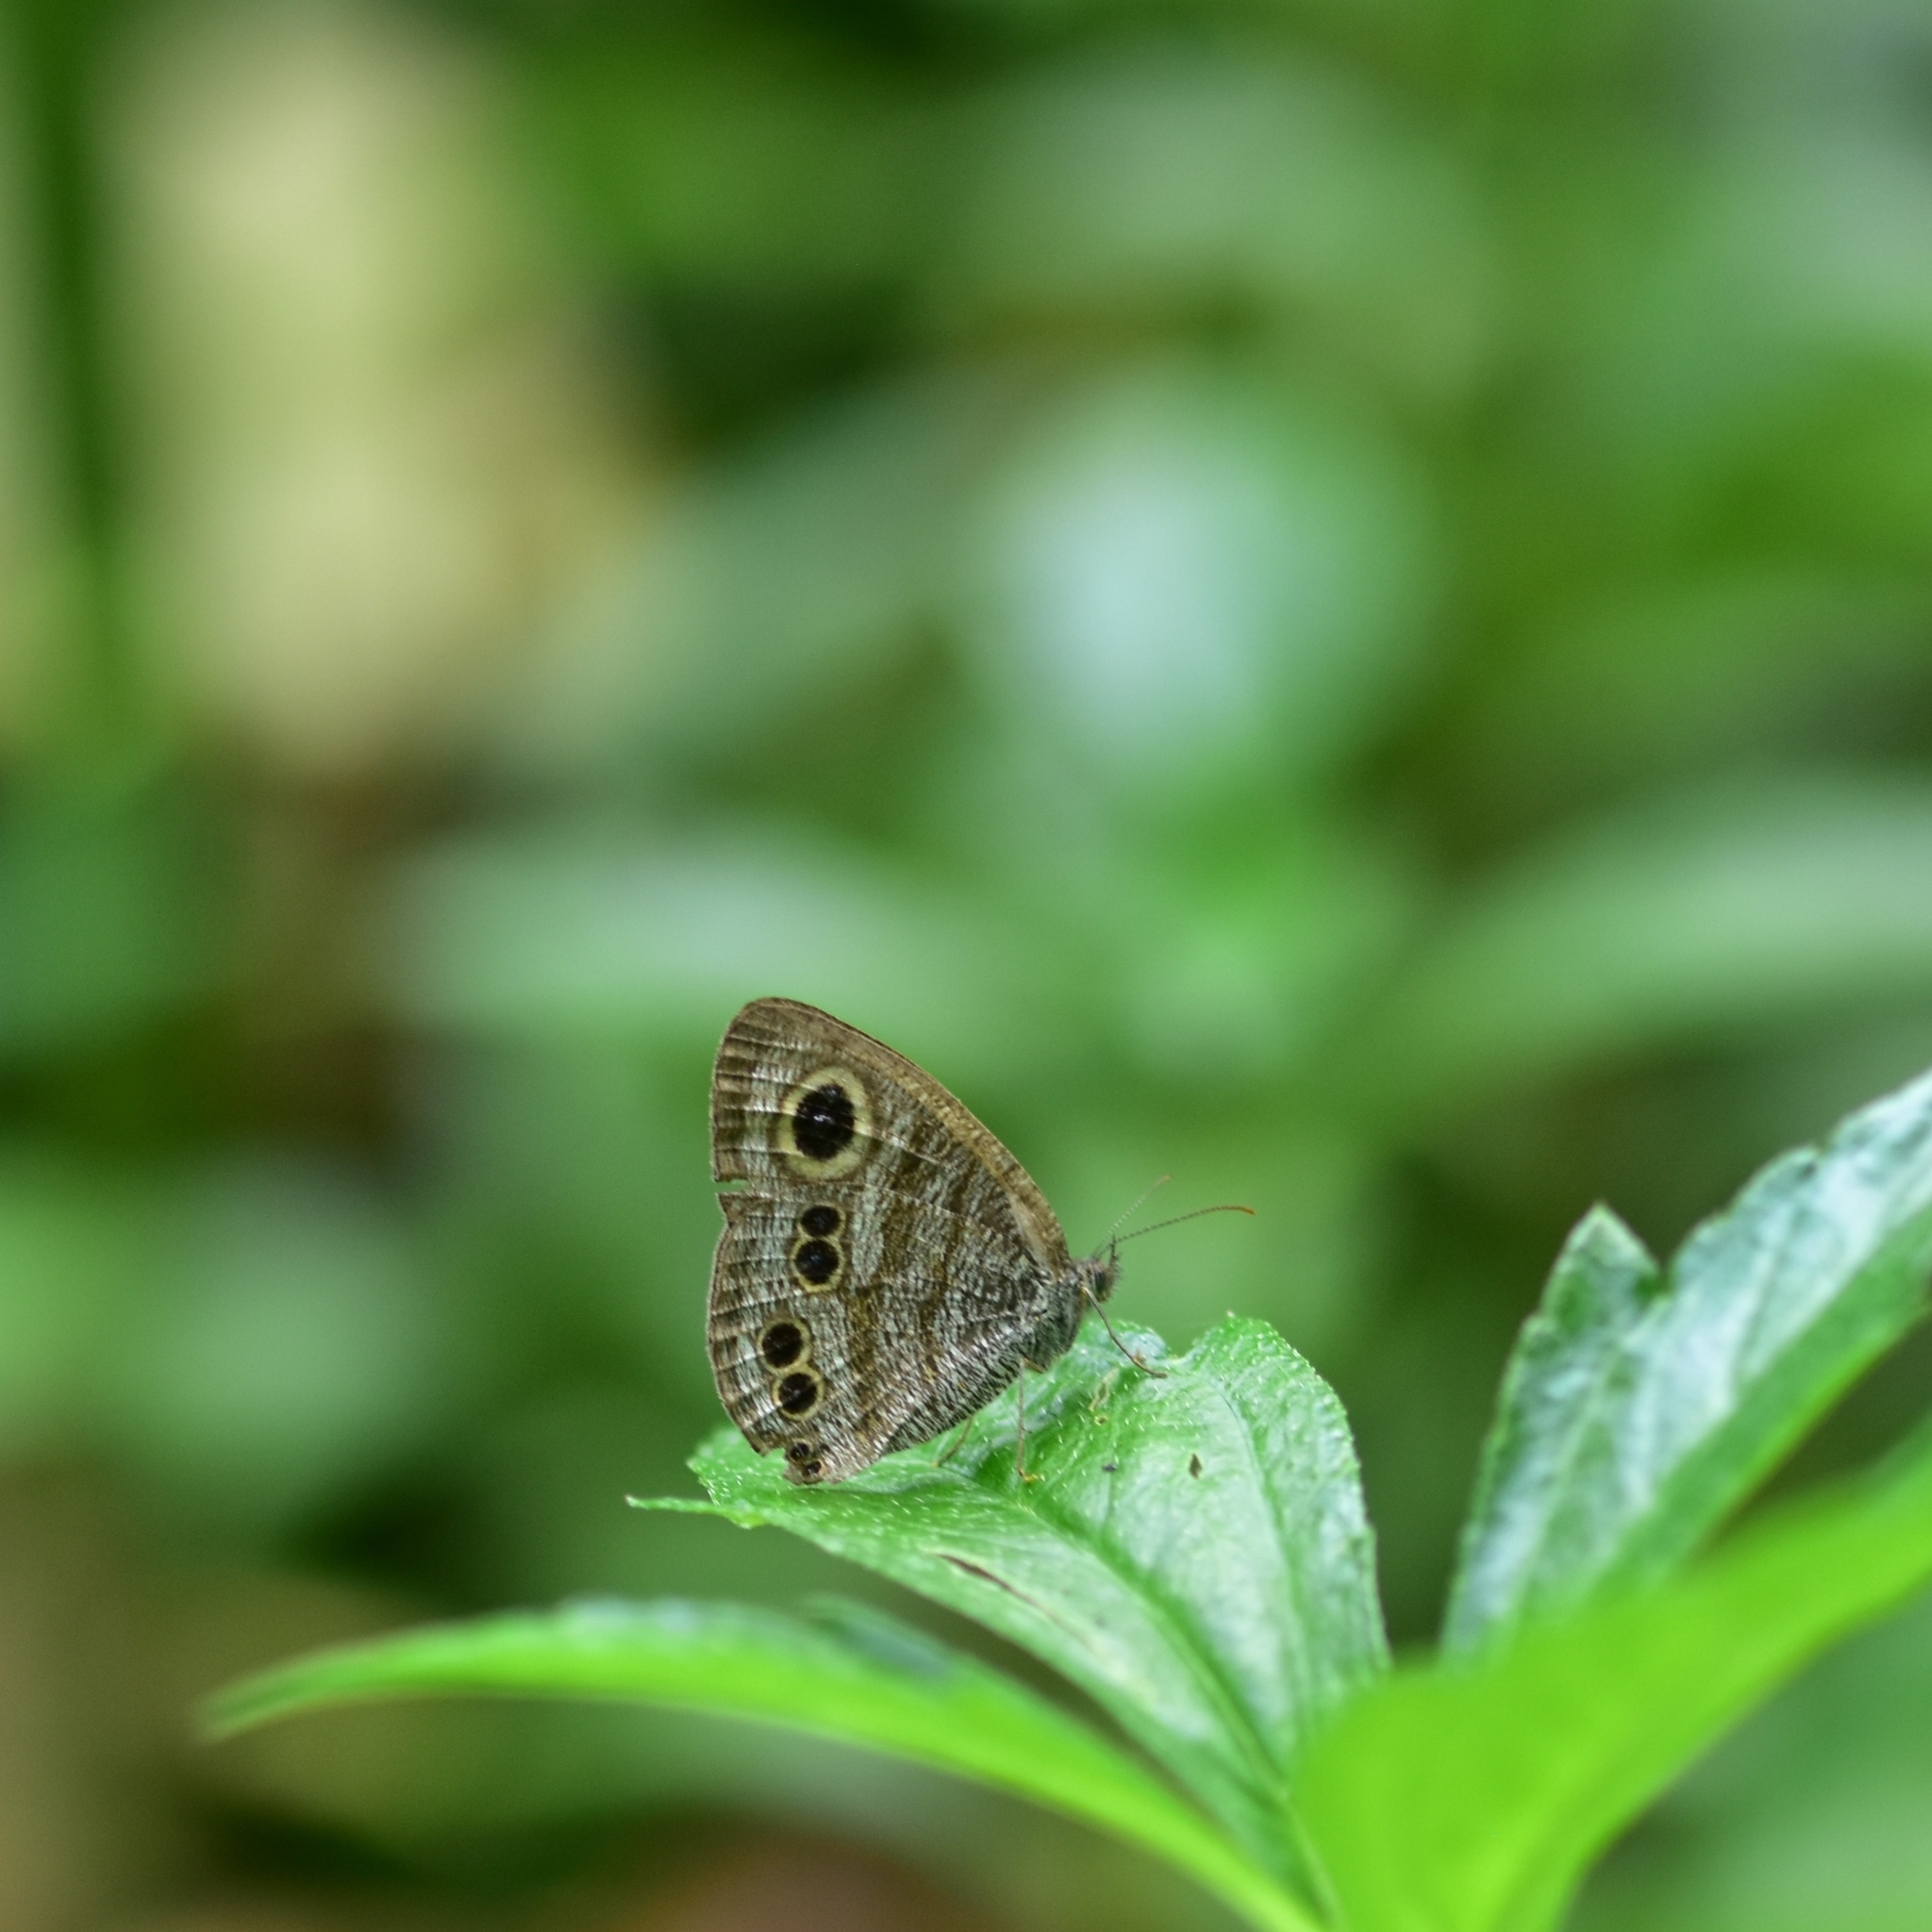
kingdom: Animalia
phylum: Arthropoda
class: Insecta
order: Lepidoptera
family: Nymphalidae
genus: Ypthima
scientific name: Ypthima baldus
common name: Common five-ring
